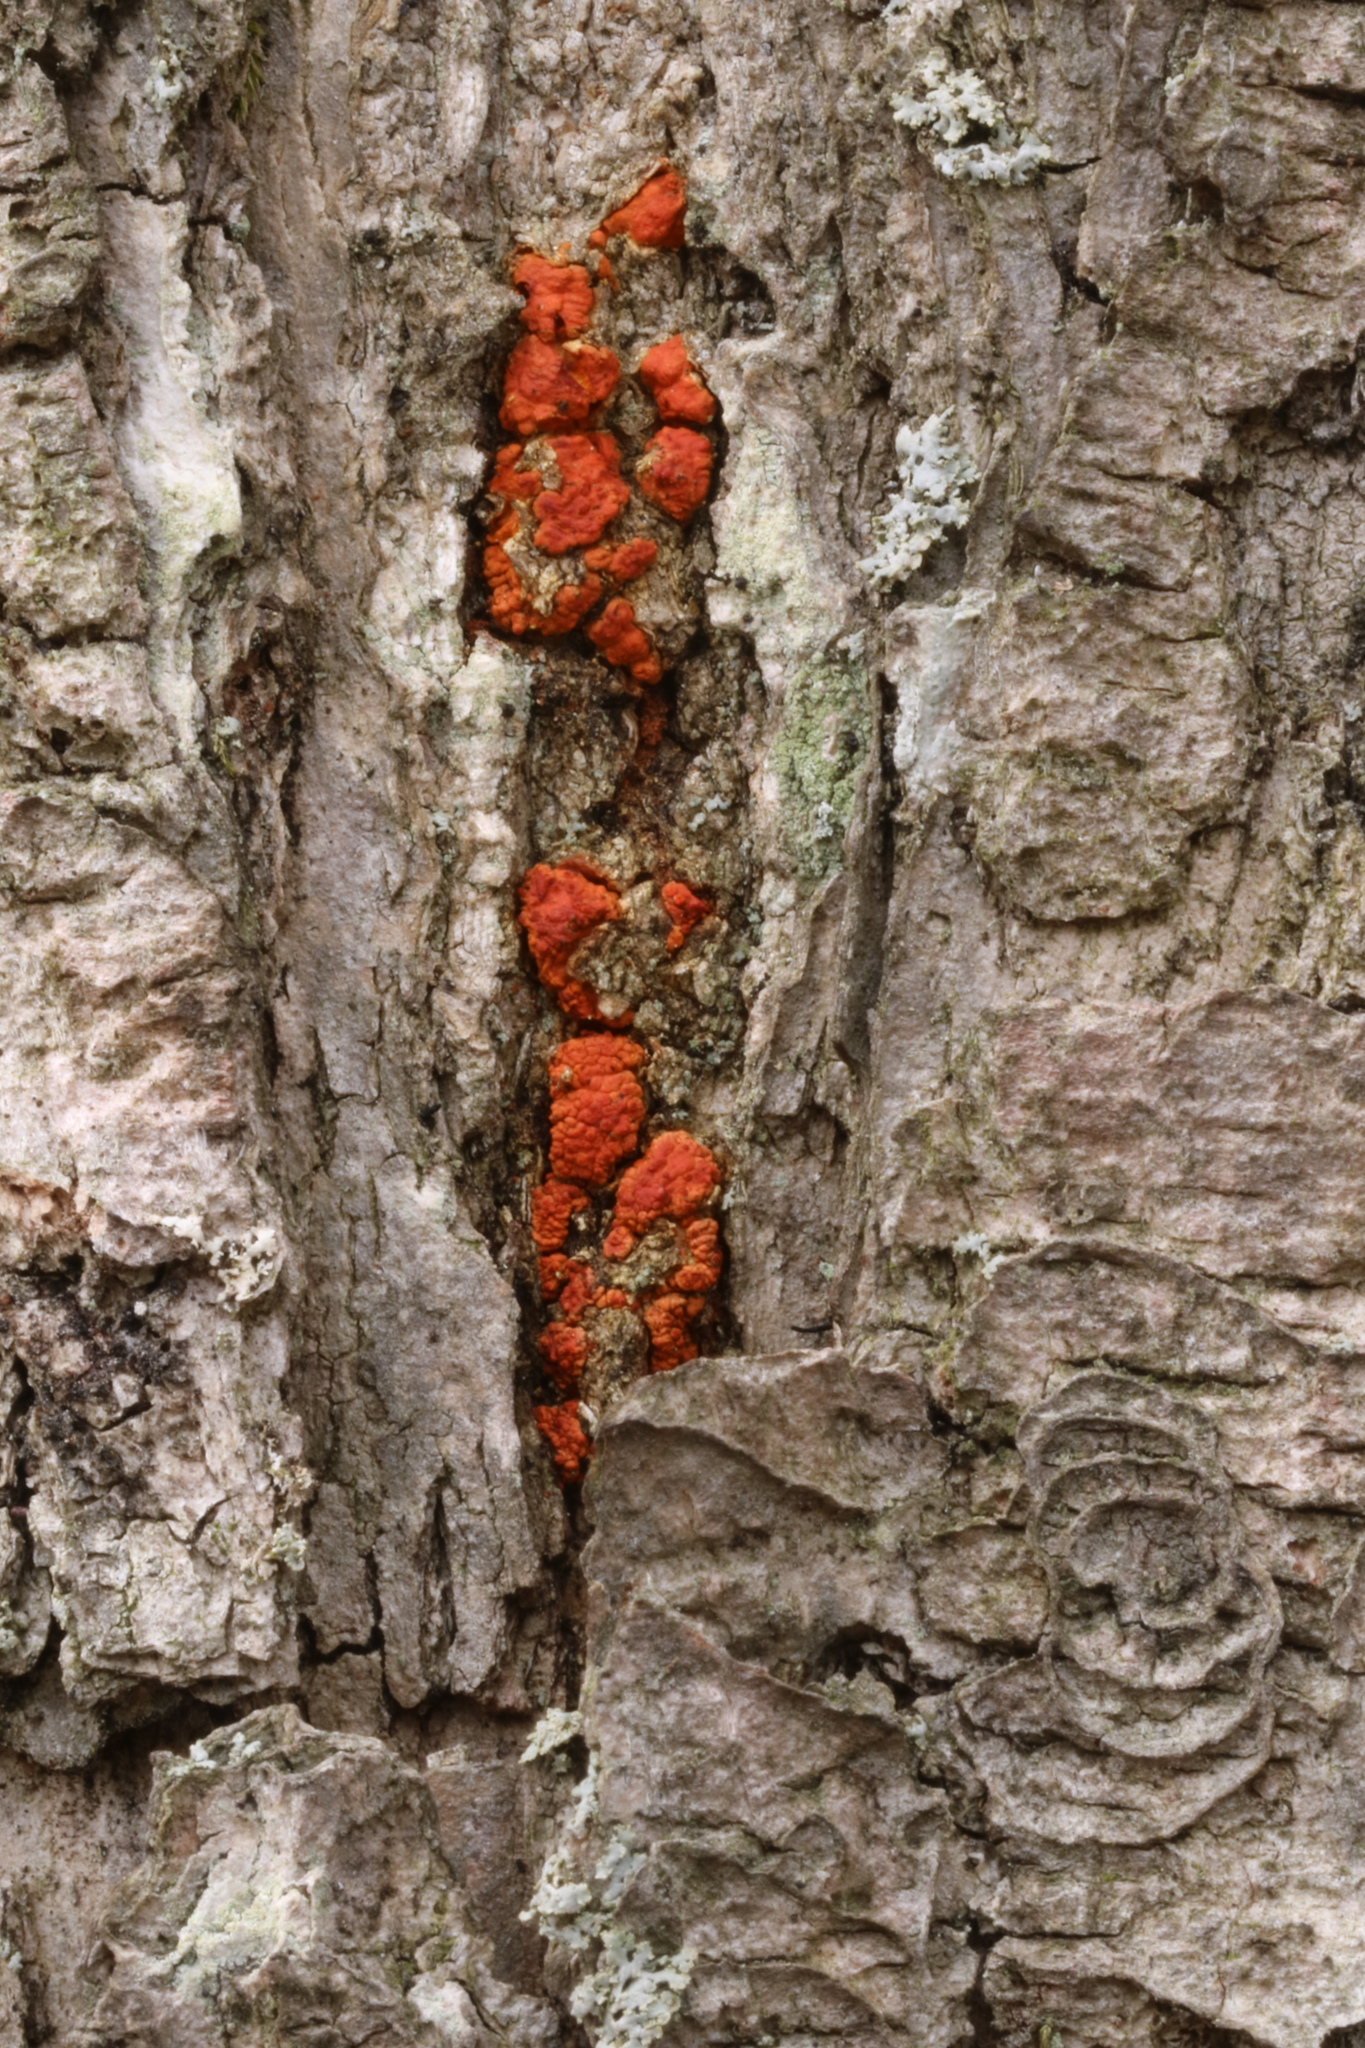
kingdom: Fungi
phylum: Ascomycota
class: Sordariomycetes
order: Diaporthales
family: Cryphonectriaceae
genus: Cryphonectria
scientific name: Cryphonectria parasitica
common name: Chestnut blight
